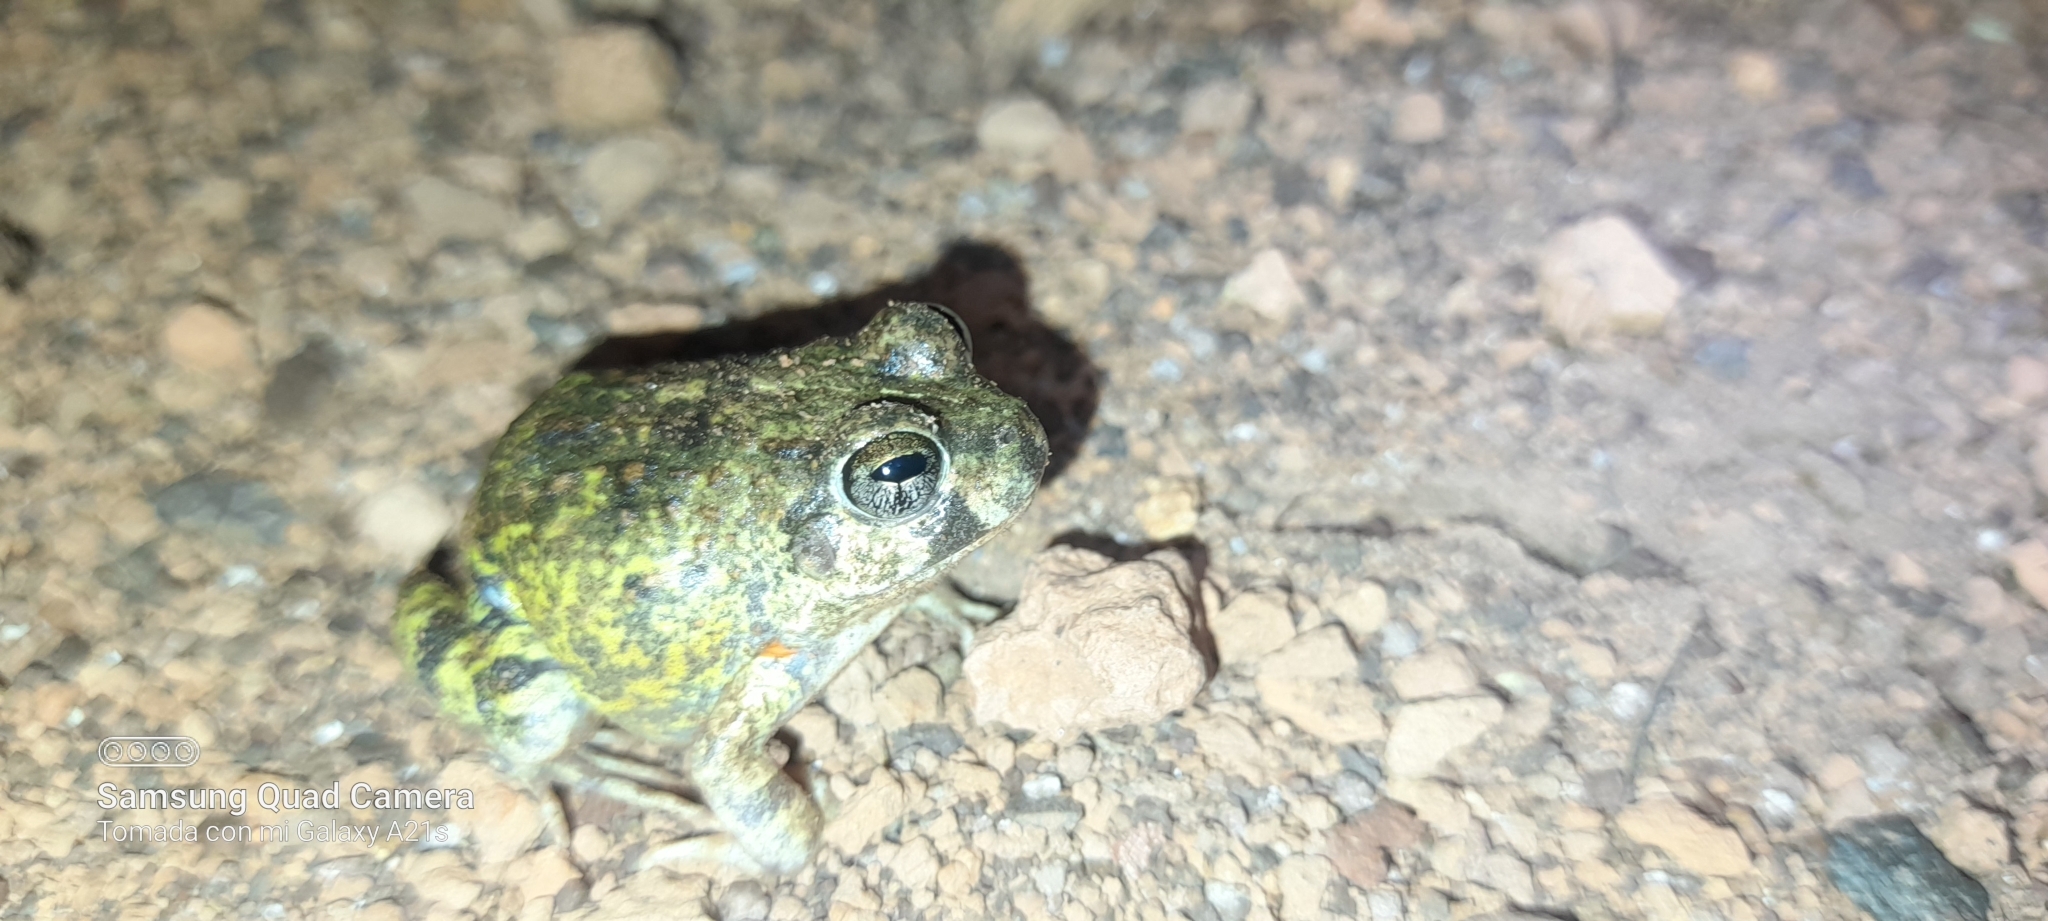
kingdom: Animalia
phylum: Chordata
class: Amphibia
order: Anura
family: Leptodactylidae
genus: Pleurodema
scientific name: Pleurodema brachyops
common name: Colombian four-eyed frog
